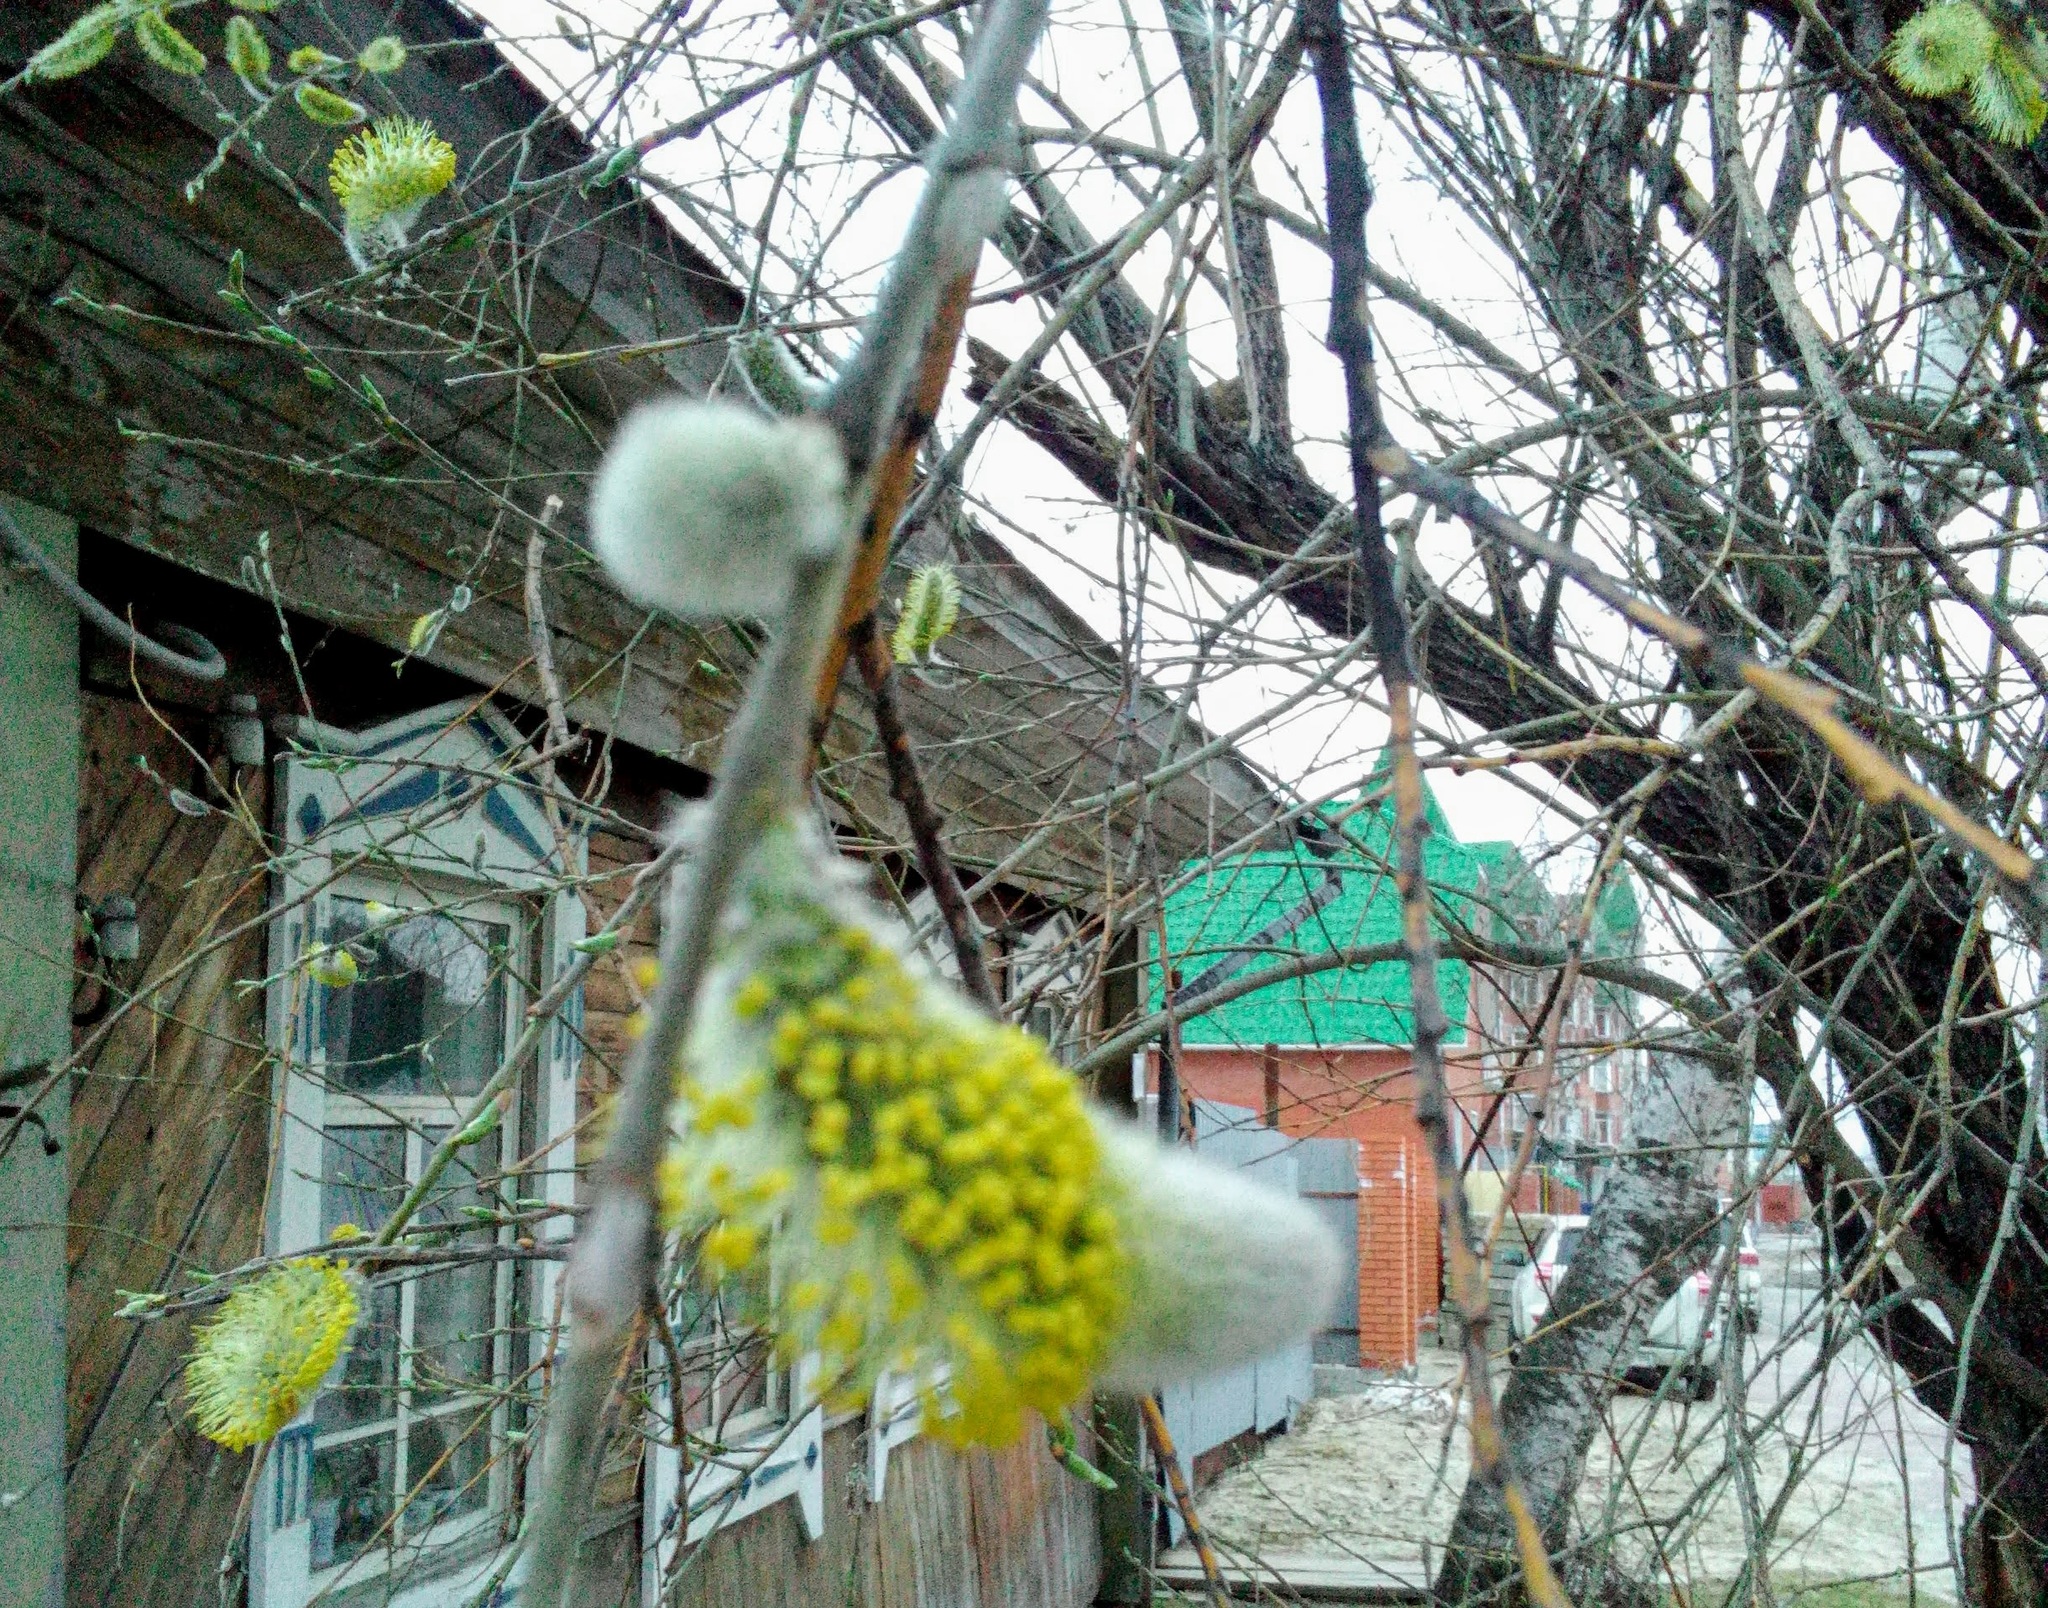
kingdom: Plantae
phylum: Tracheophyta
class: Magnoliopsida
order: Malpighiales
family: Salicaceae
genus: Salix
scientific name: Salix caprea
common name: Goat willow
